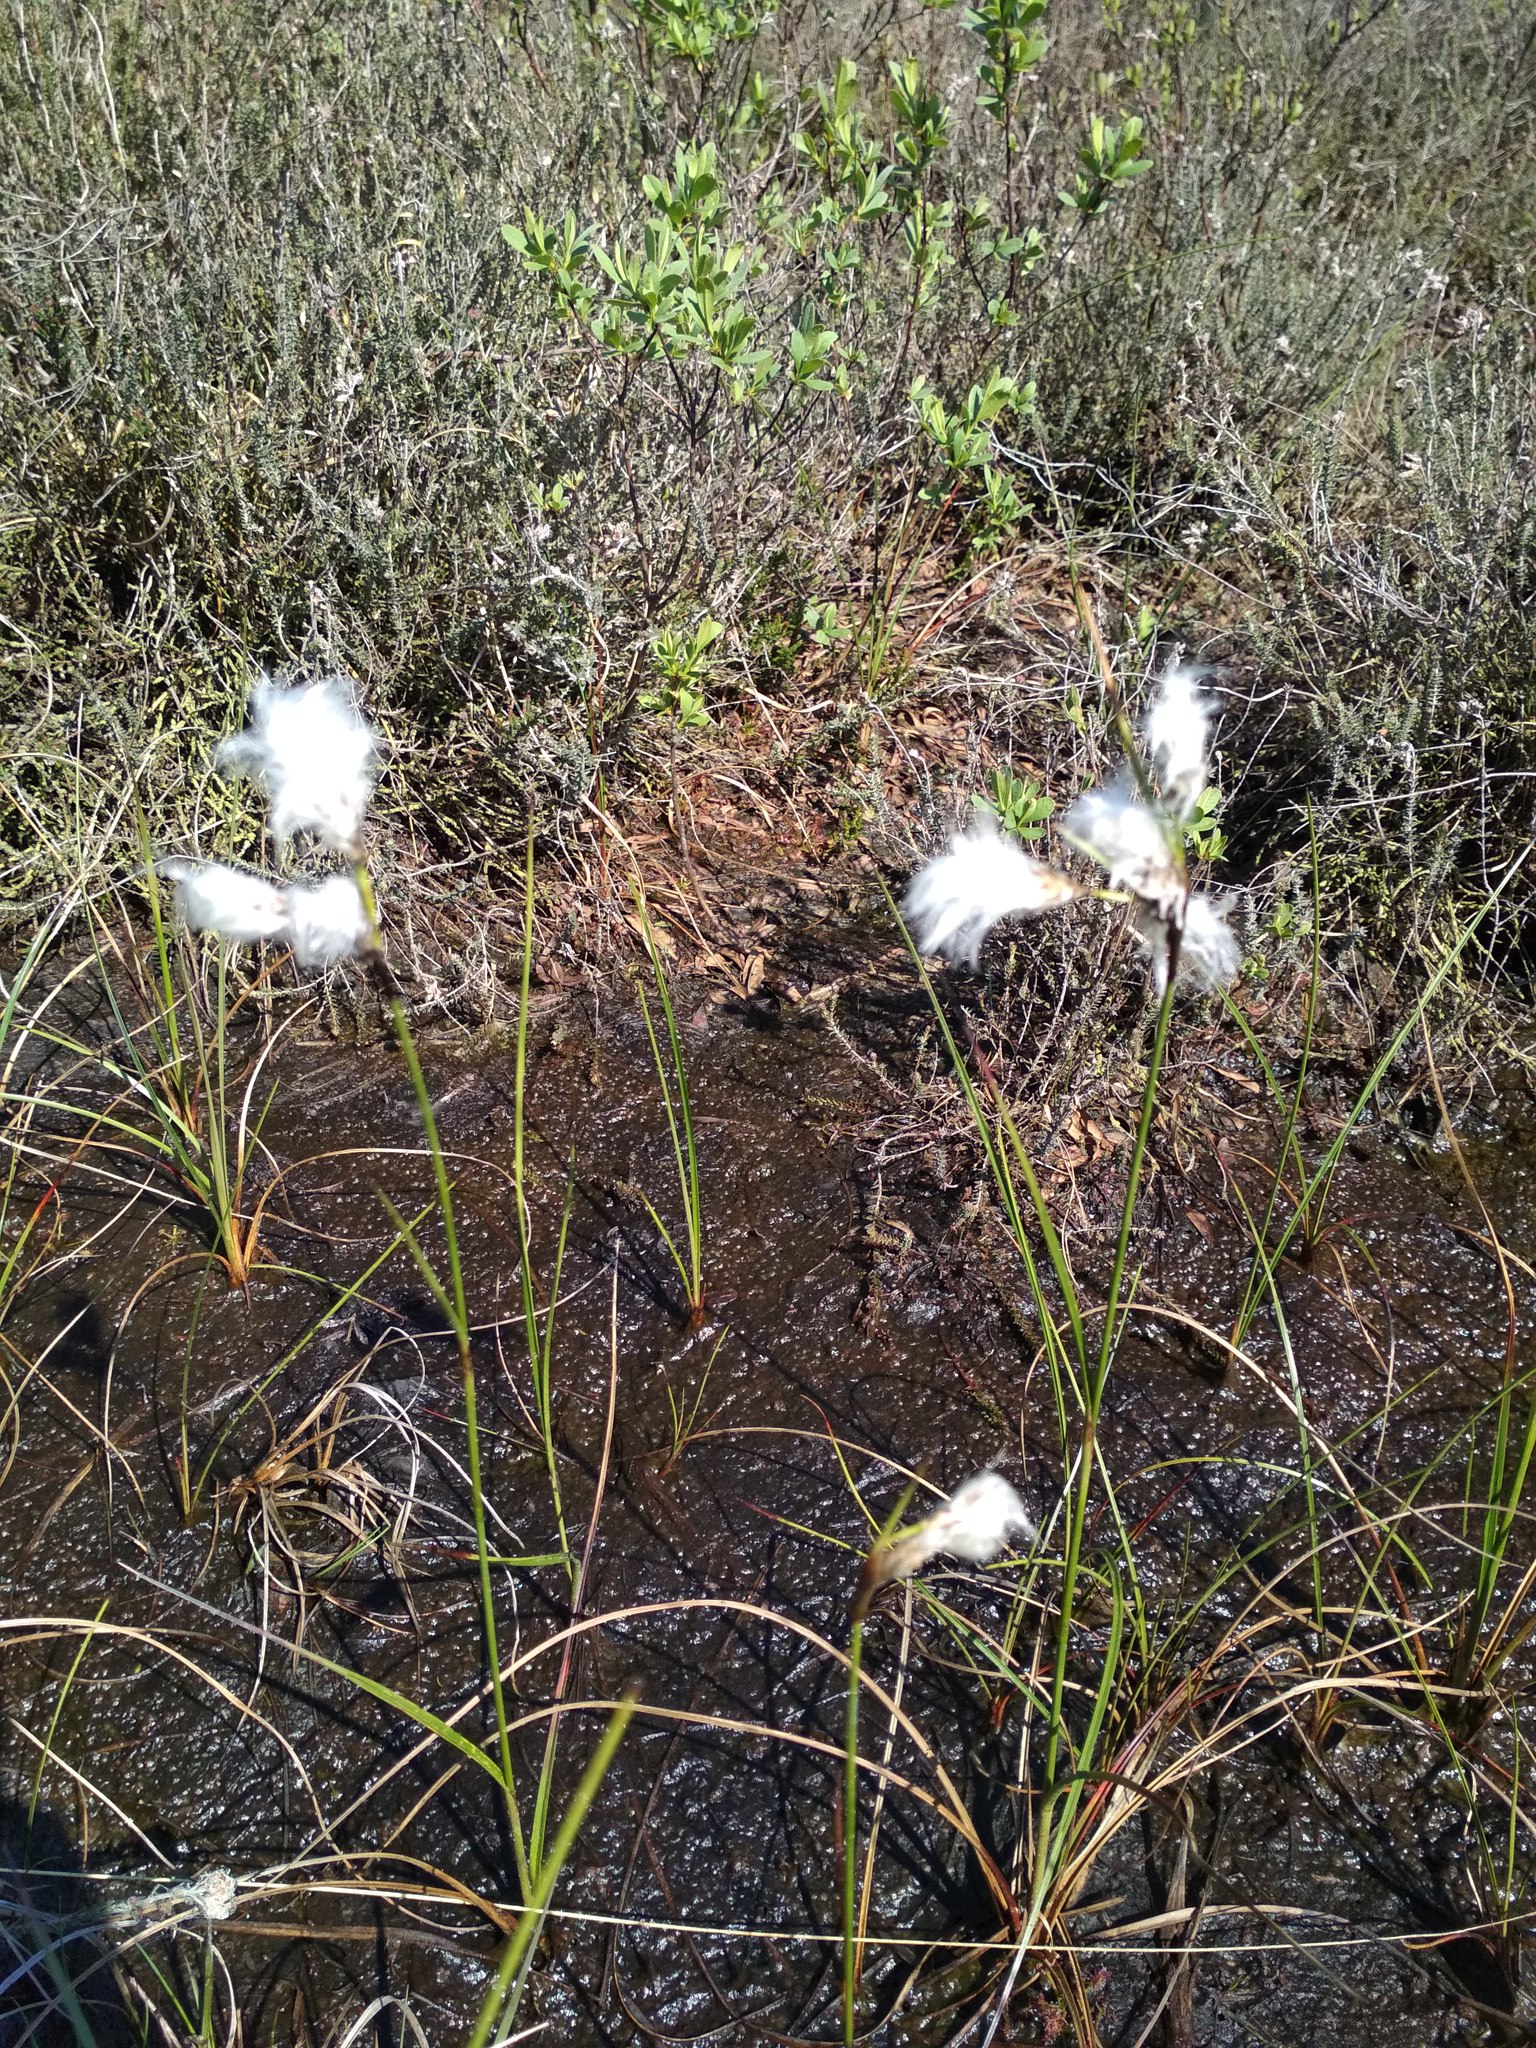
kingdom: Plantae
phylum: Tracheophyta
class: Liliopsida
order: Poales
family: Cyperaceae
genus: Eriophorum
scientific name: Eriophorum angustifolium
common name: Common cottongrass
